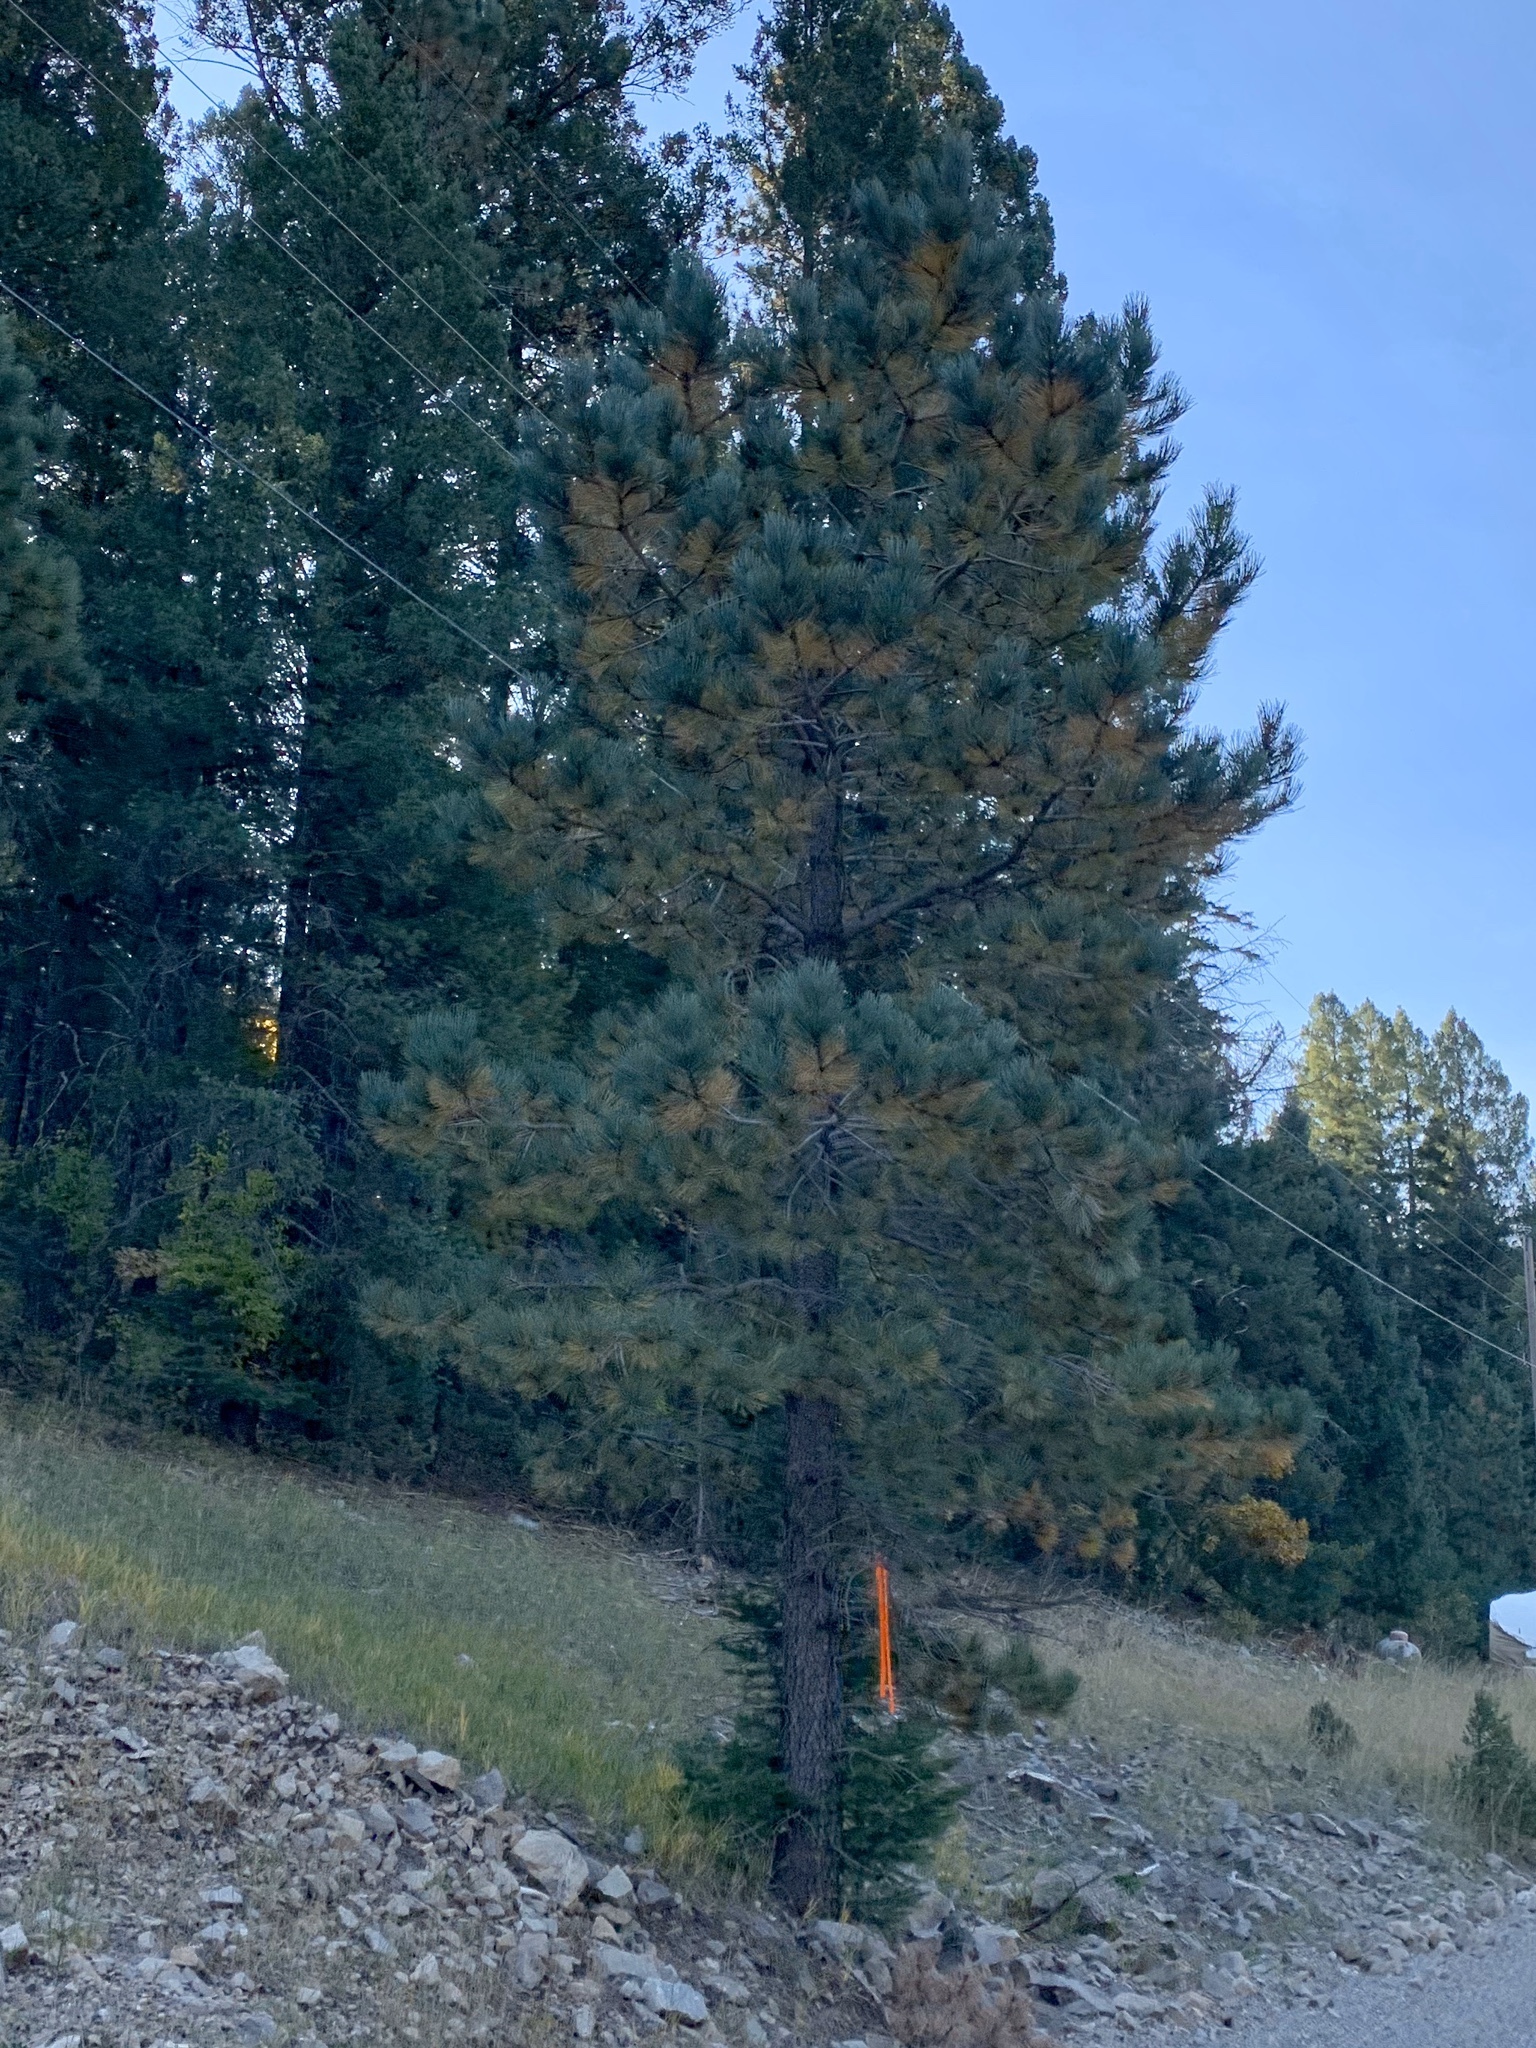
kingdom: Plantae
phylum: Tracheophyta
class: Pinopsida
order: Pinales
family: Pinaceae
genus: Pinus
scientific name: Pinus ponderosa
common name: Western yellow-pine
